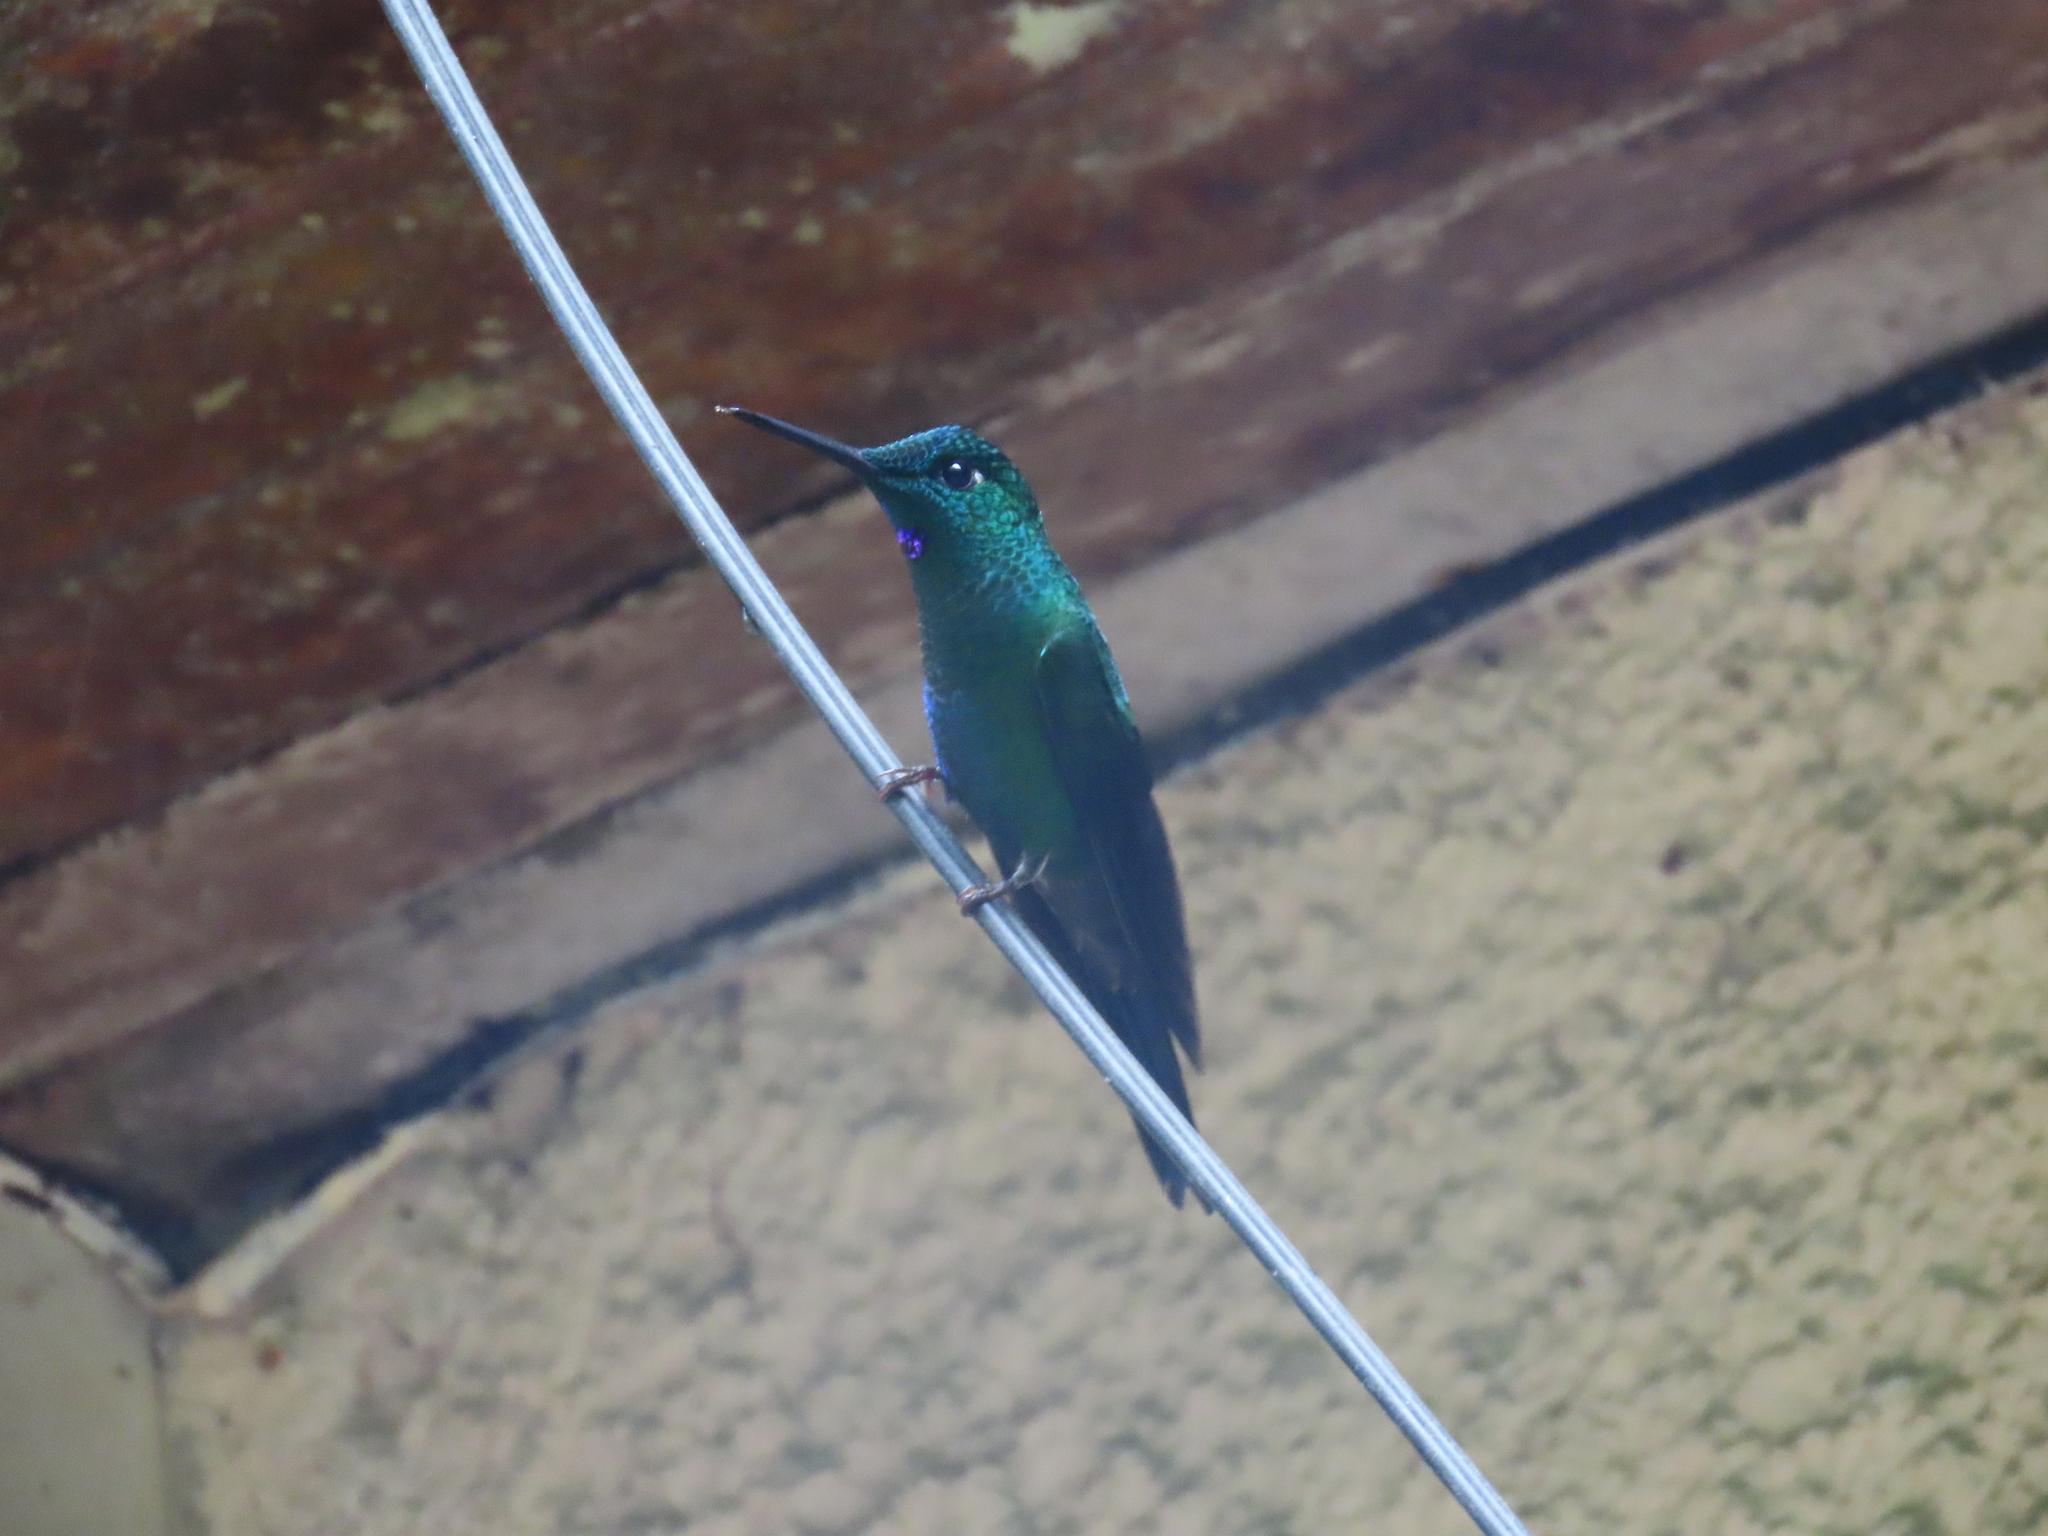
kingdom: Animalia
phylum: Chordata
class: Aves
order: Apodiformes
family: Trochilidae
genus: Heliodoxa
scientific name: Heliodoxa jacula
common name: Green-crowned brilliant
